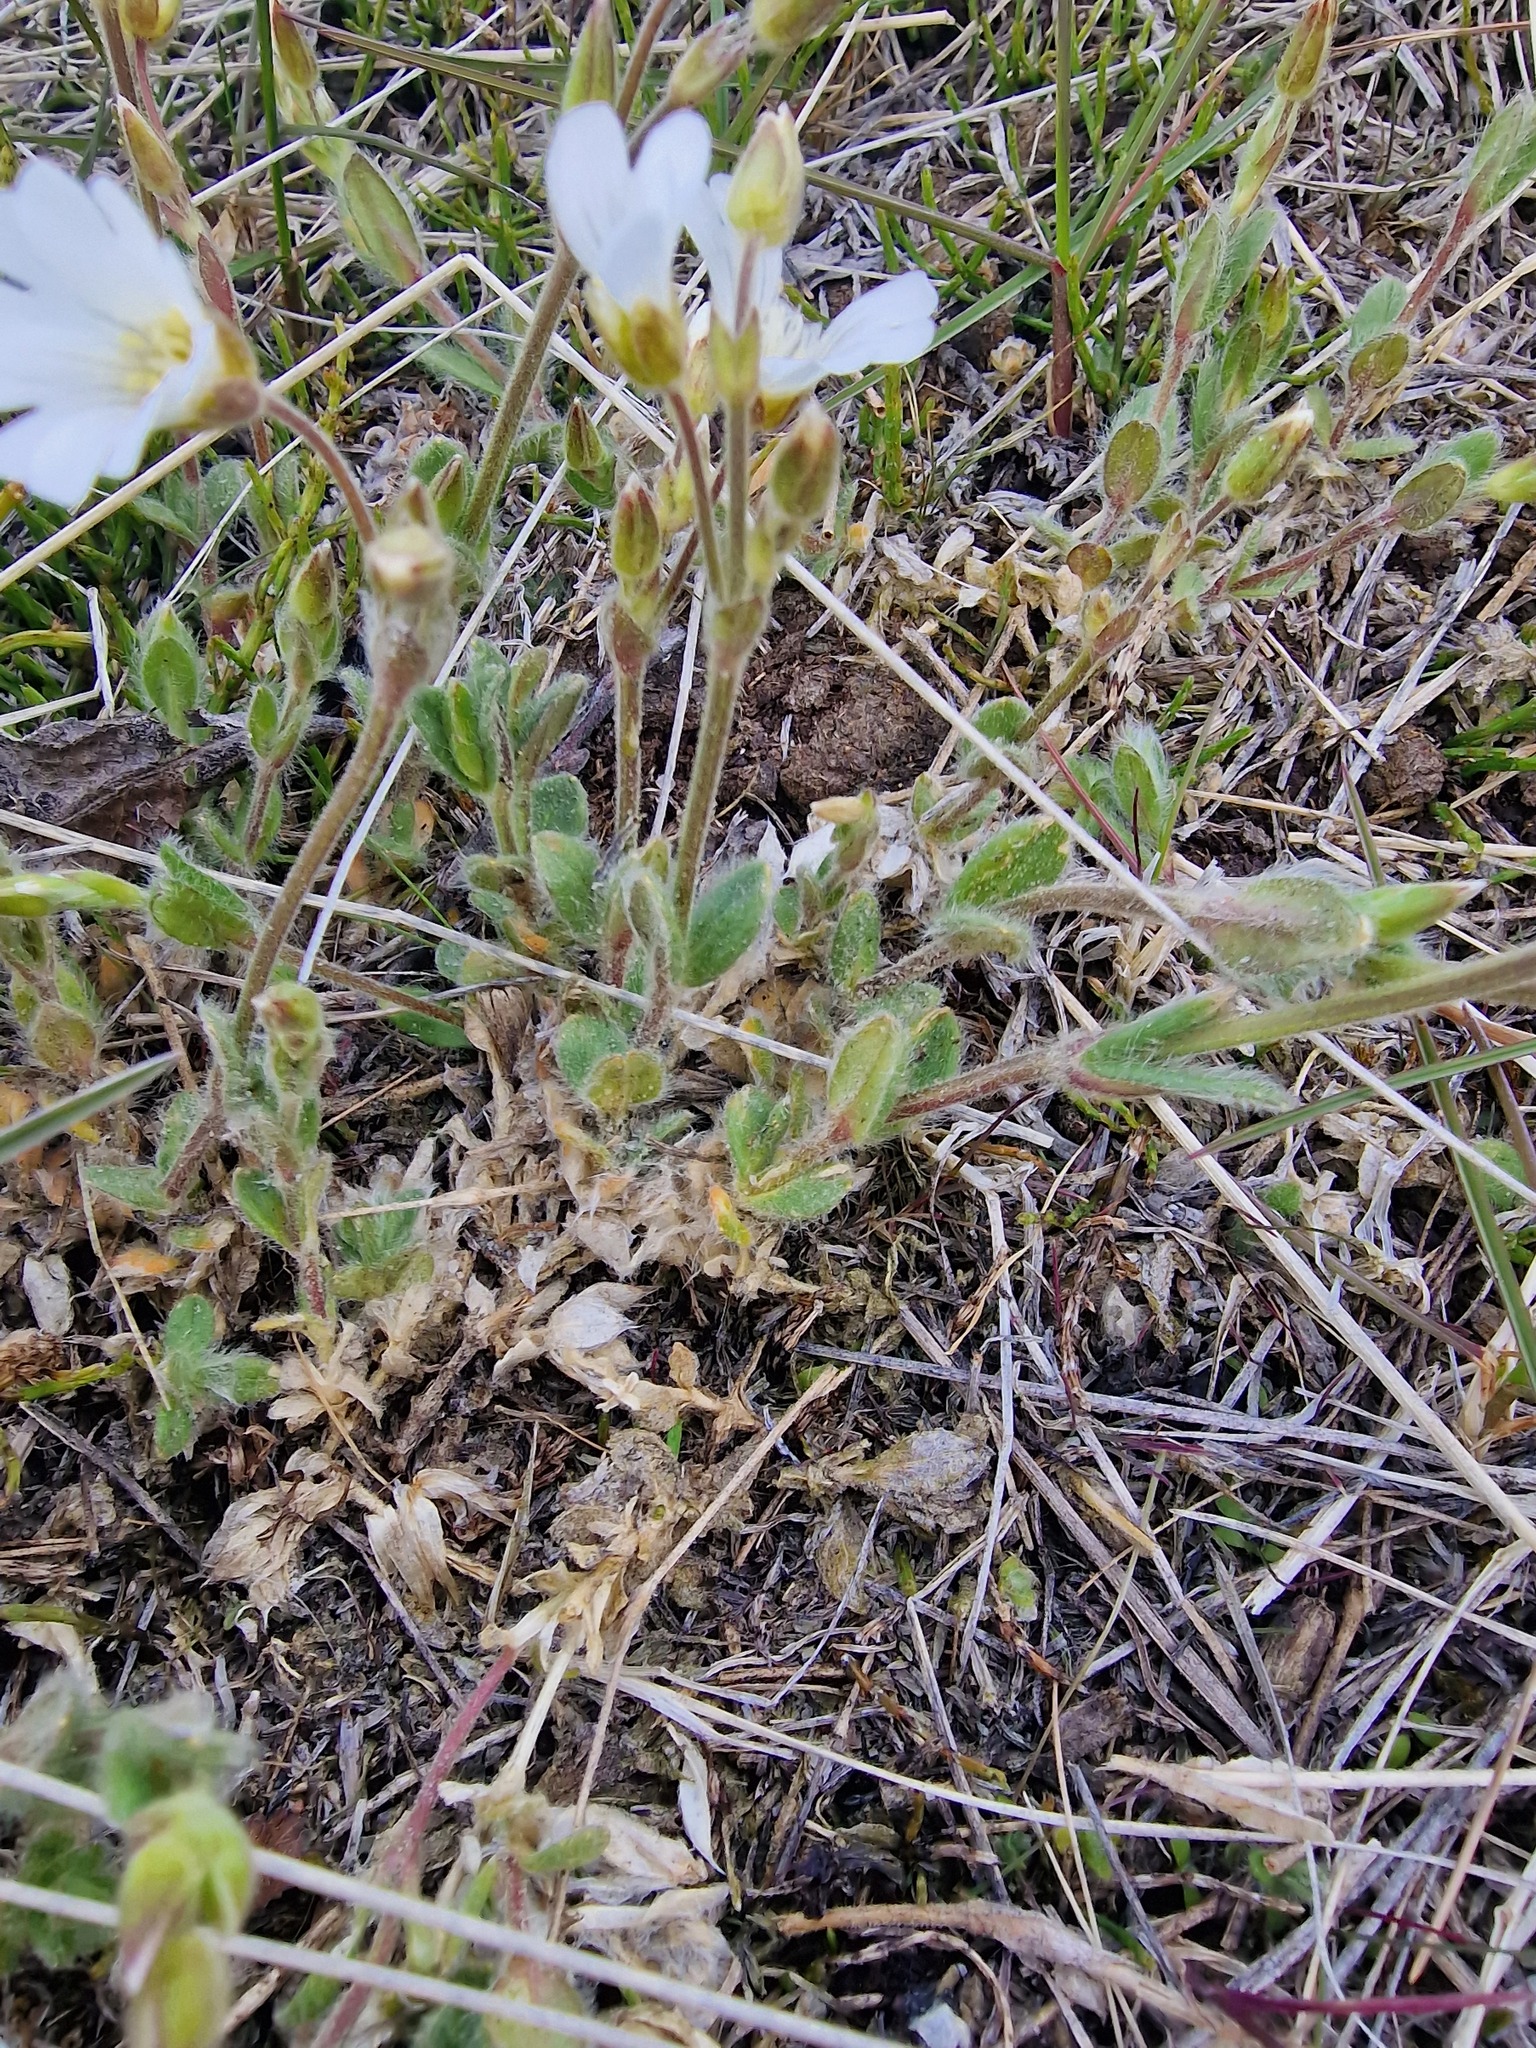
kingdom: Plantae
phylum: Tracheophyta
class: Magnoliopsida
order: Caryophyllales
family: Caryophyllaceae
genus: Cerastium
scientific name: Cerastium alpinum
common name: Alpine mouse-ear
